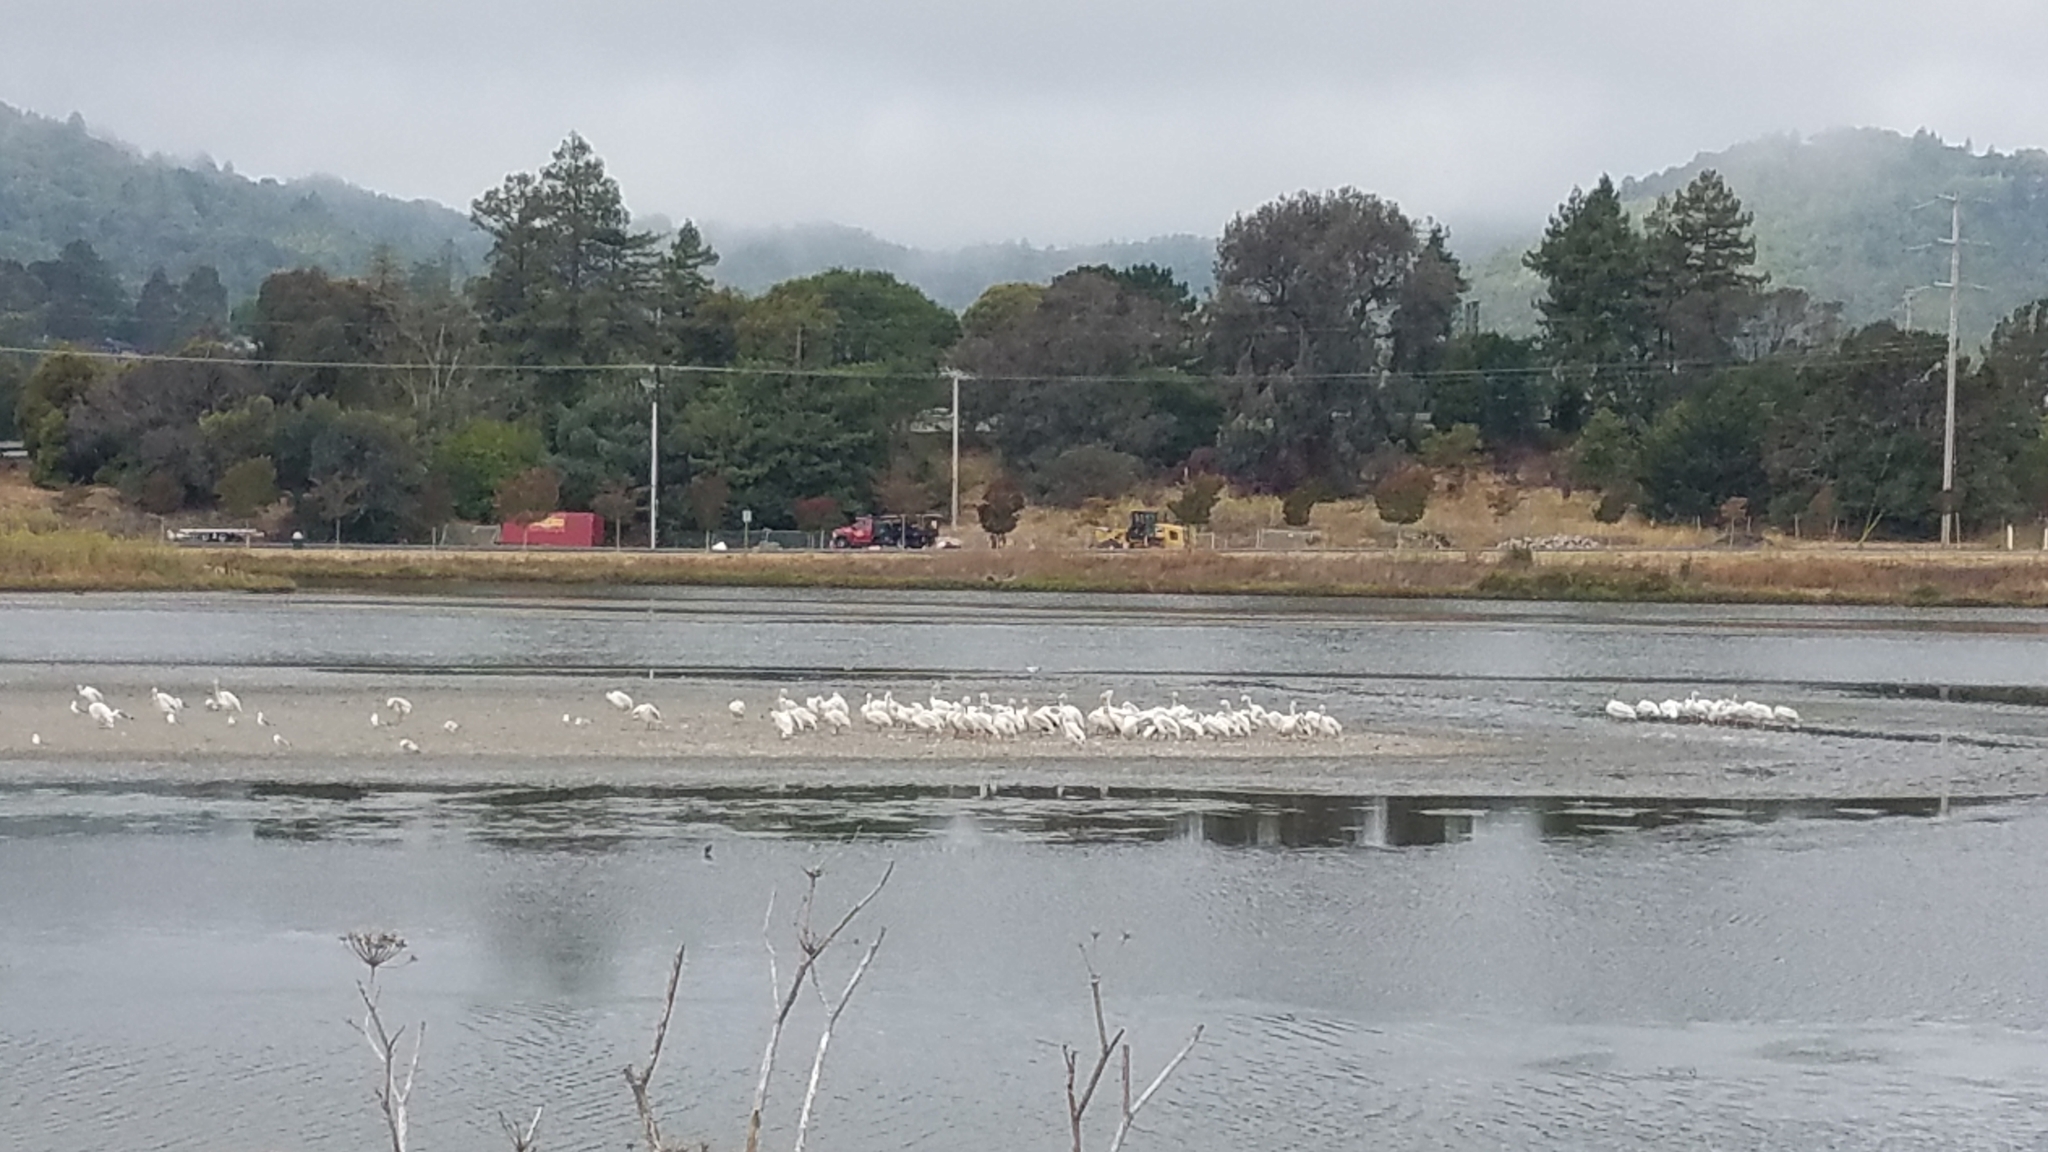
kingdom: Animalia
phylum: Chordata
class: Aves
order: Pelecaniformes
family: Pelecanidae
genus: Pelecanus
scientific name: Pelecanus erythrorhynchos
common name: American white pelican
